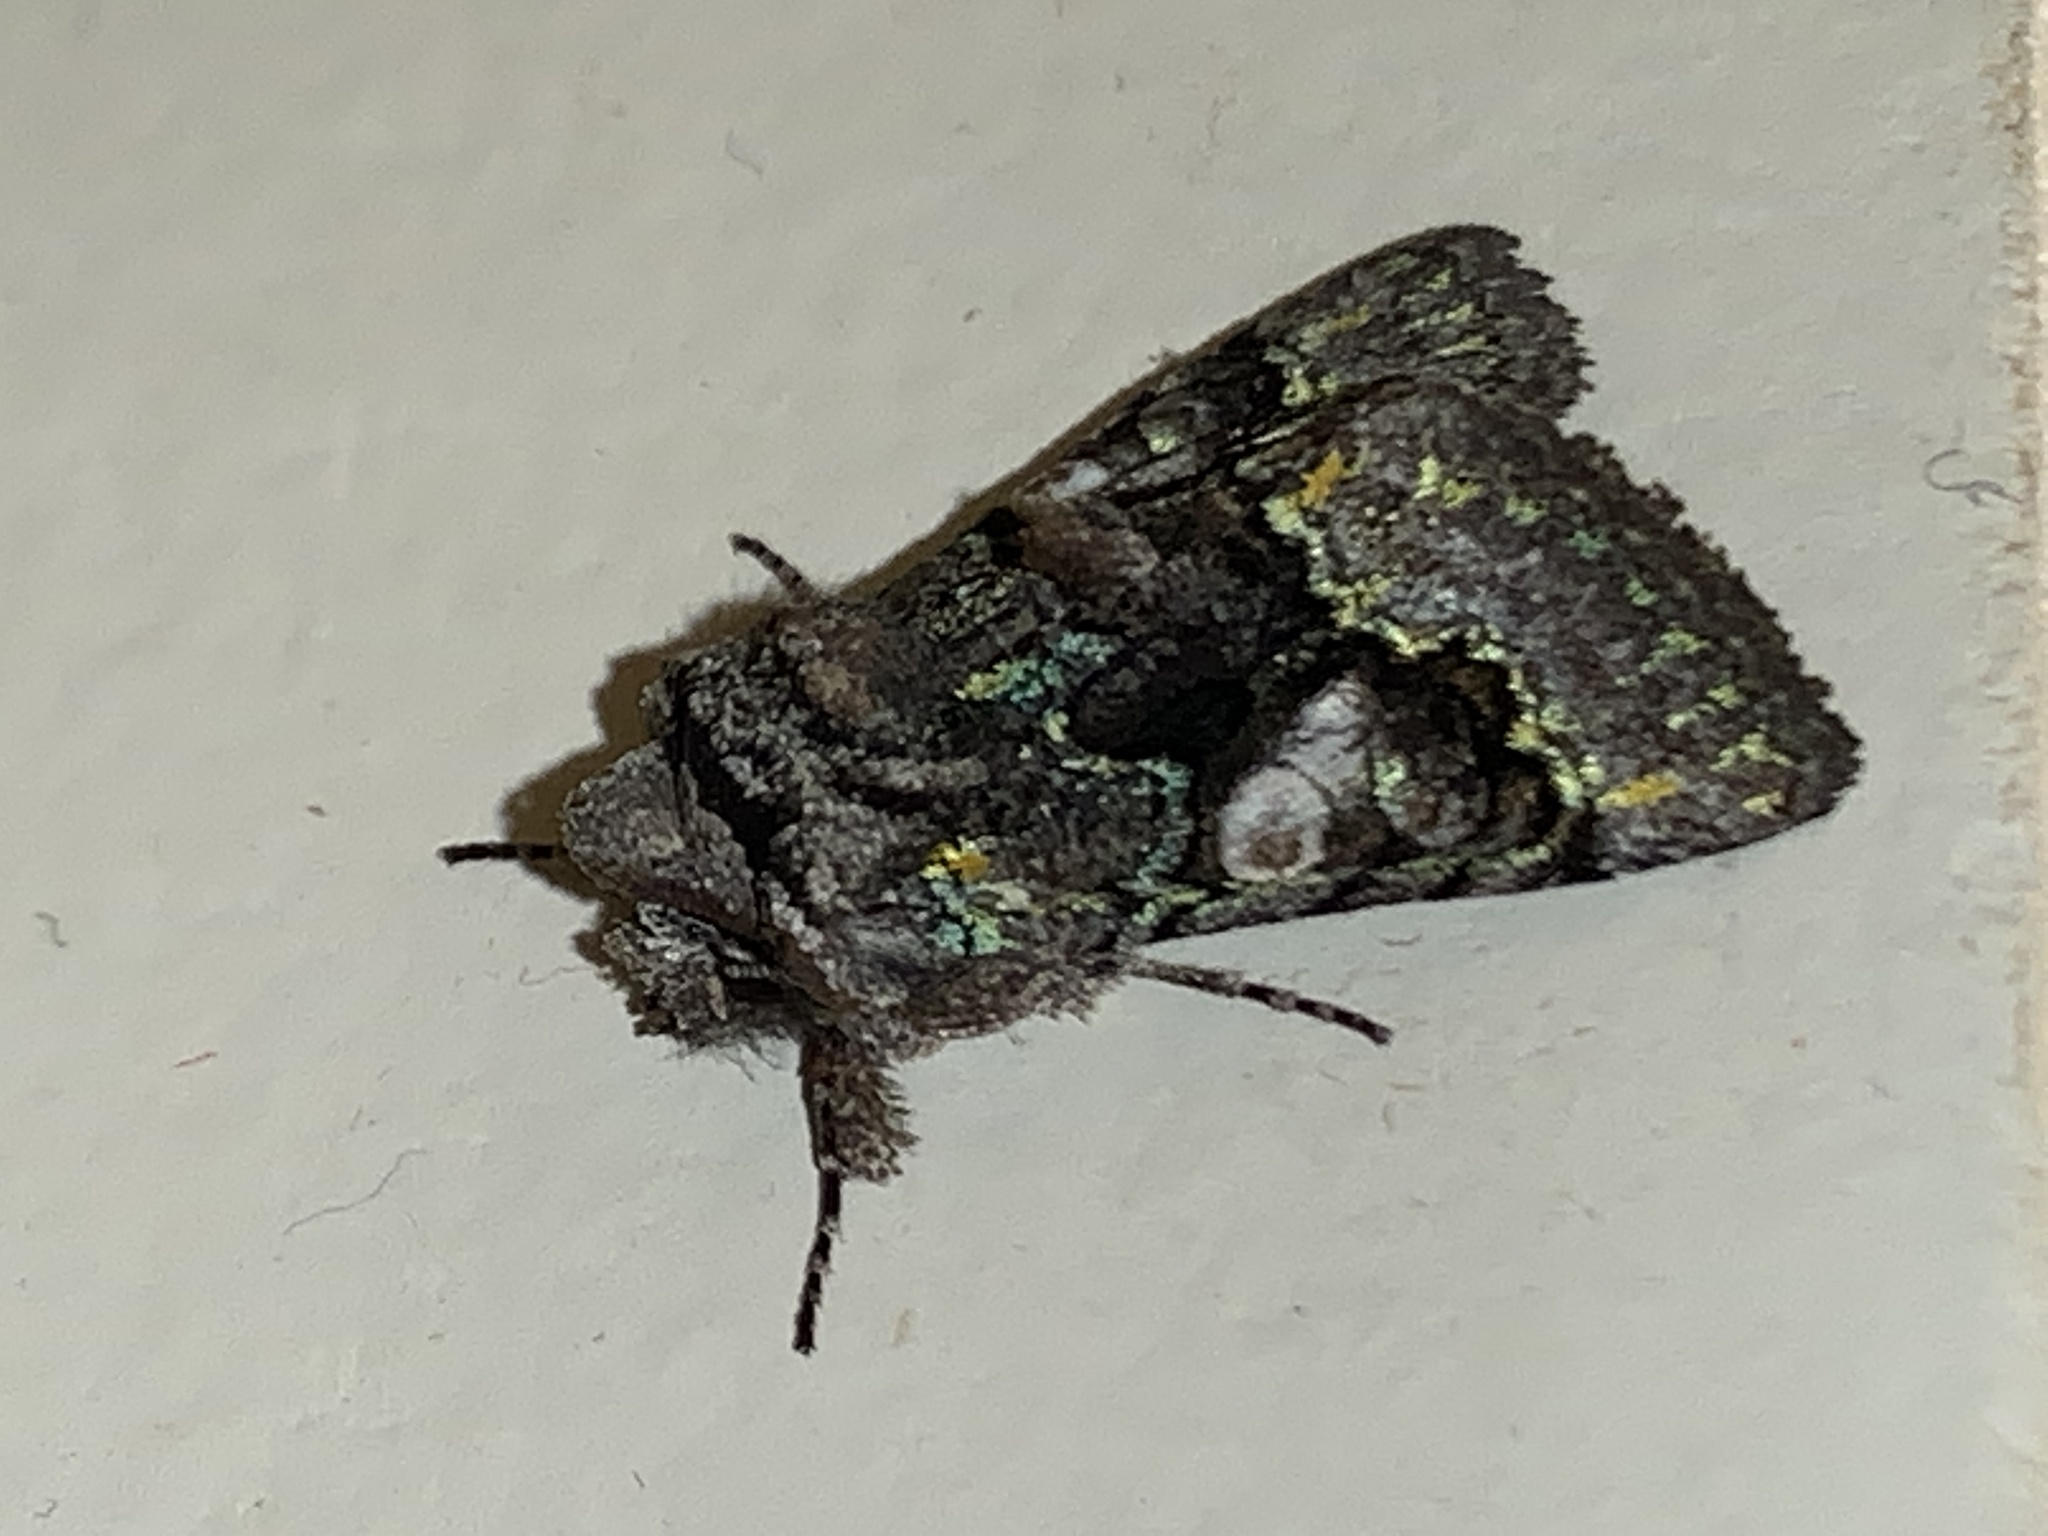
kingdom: Animalia
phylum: Arthropoda
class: Insecta
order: Lepidoptera
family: Noctuidae
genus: Behrensia
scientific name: Behrensia conchiformis
